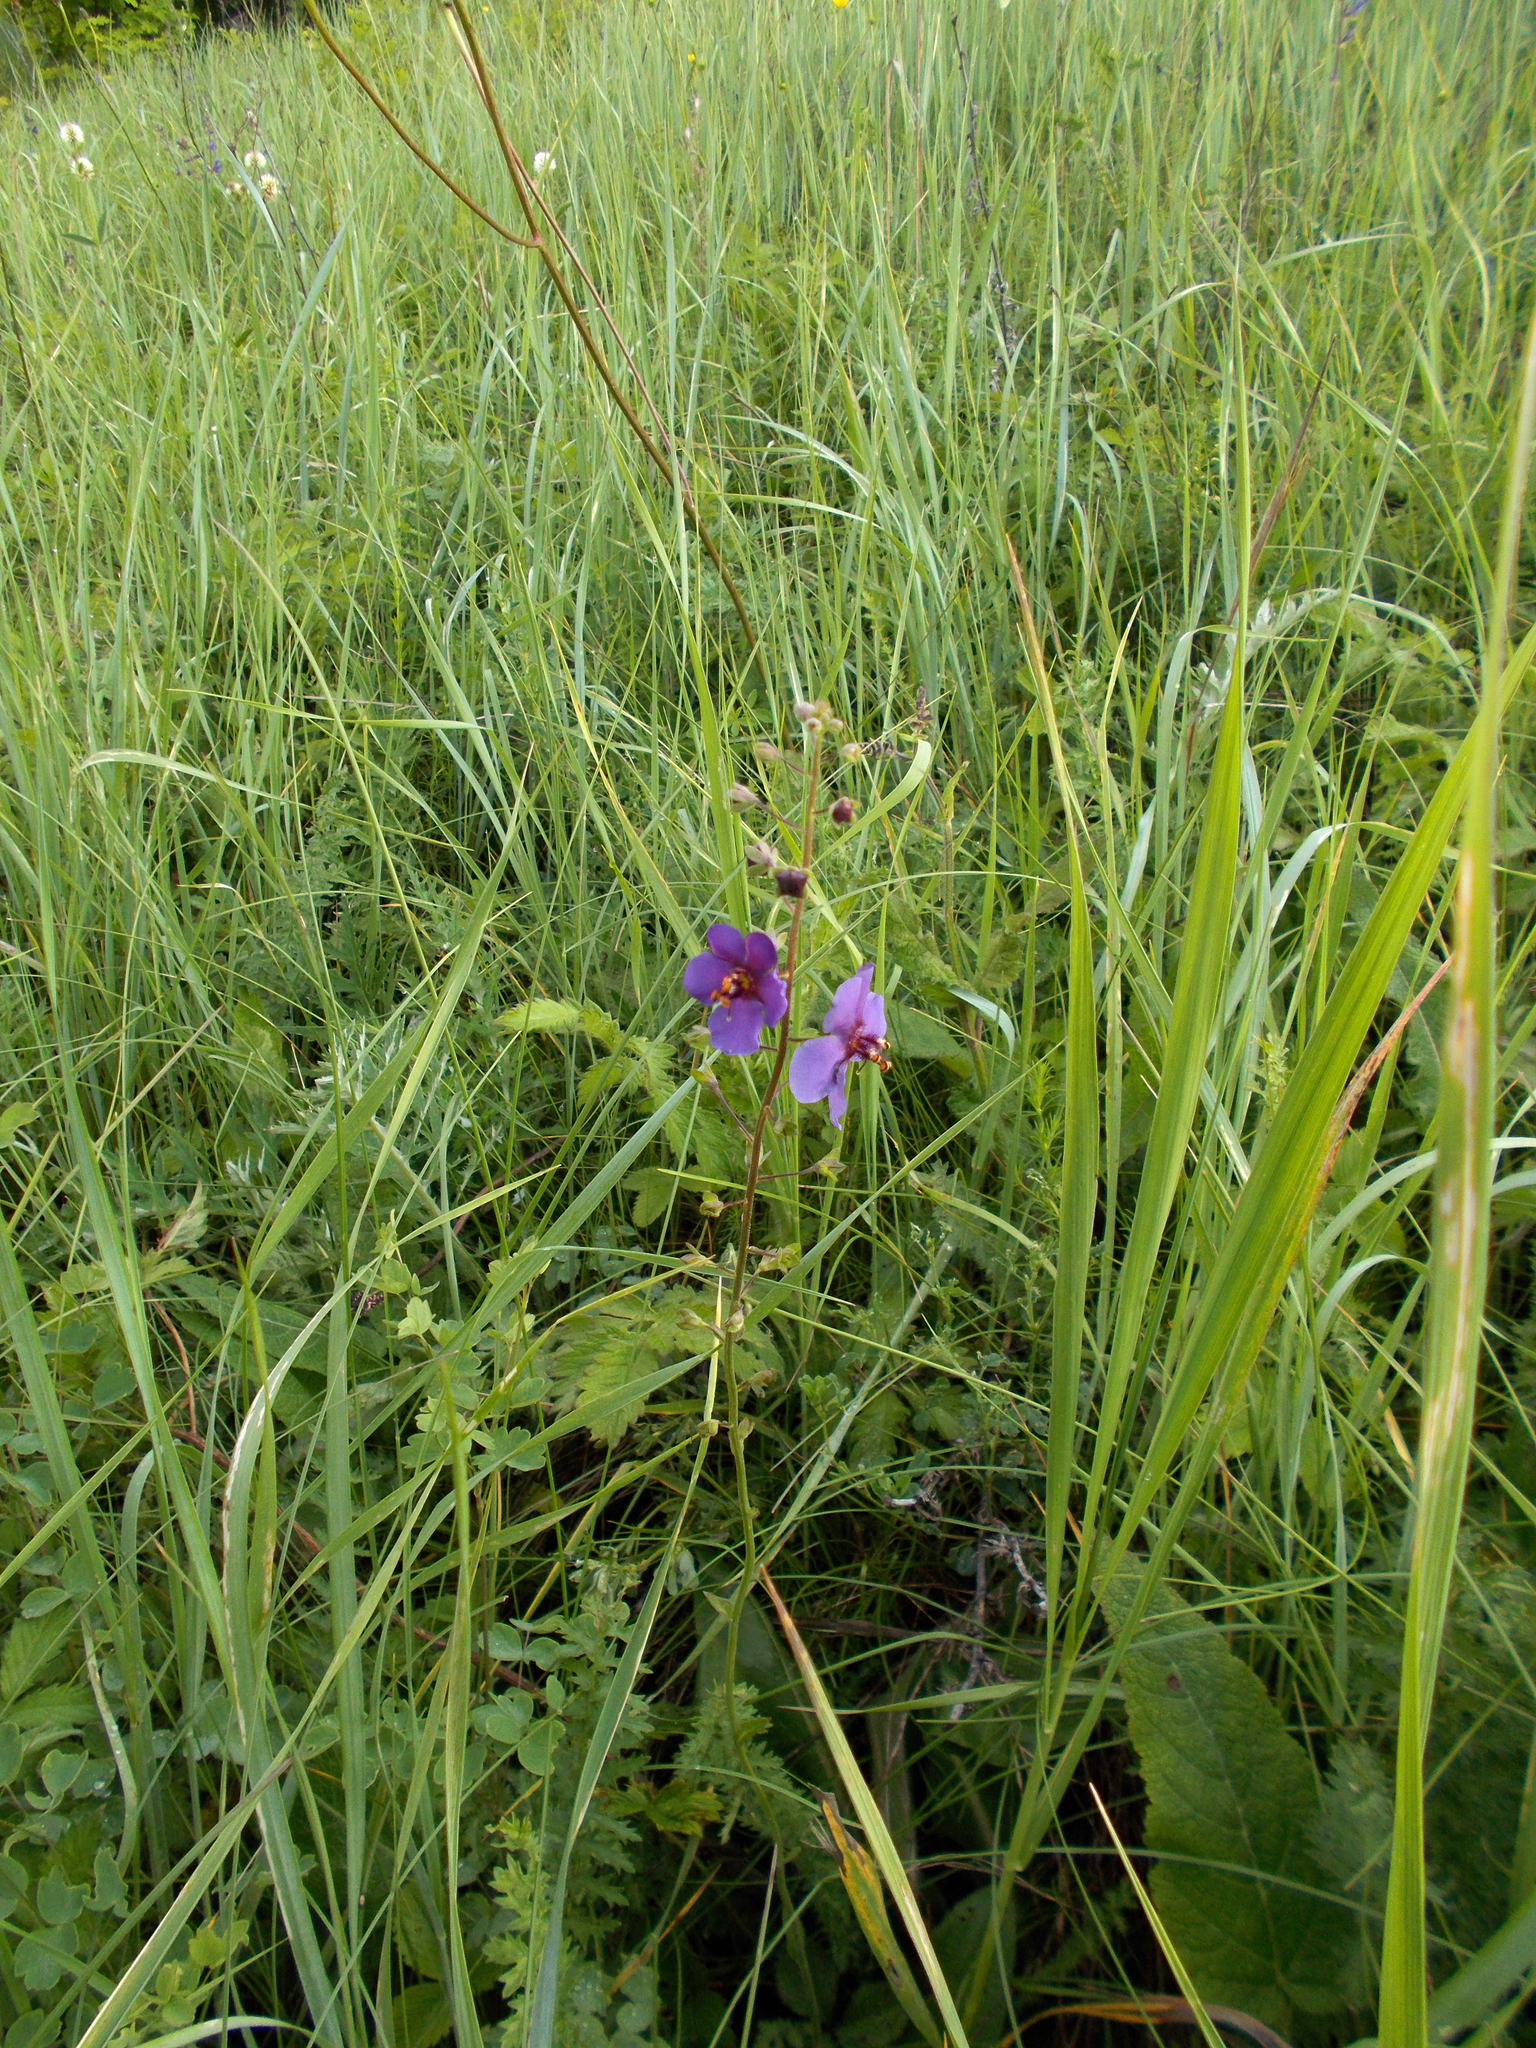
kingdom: Plantae
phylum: Tracheophyta
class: Magnoliopsida
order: Lamiales
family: Scrophulariaceae
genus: Verbascum
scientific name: Verbascum phoeniceum
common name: Purple mullein
